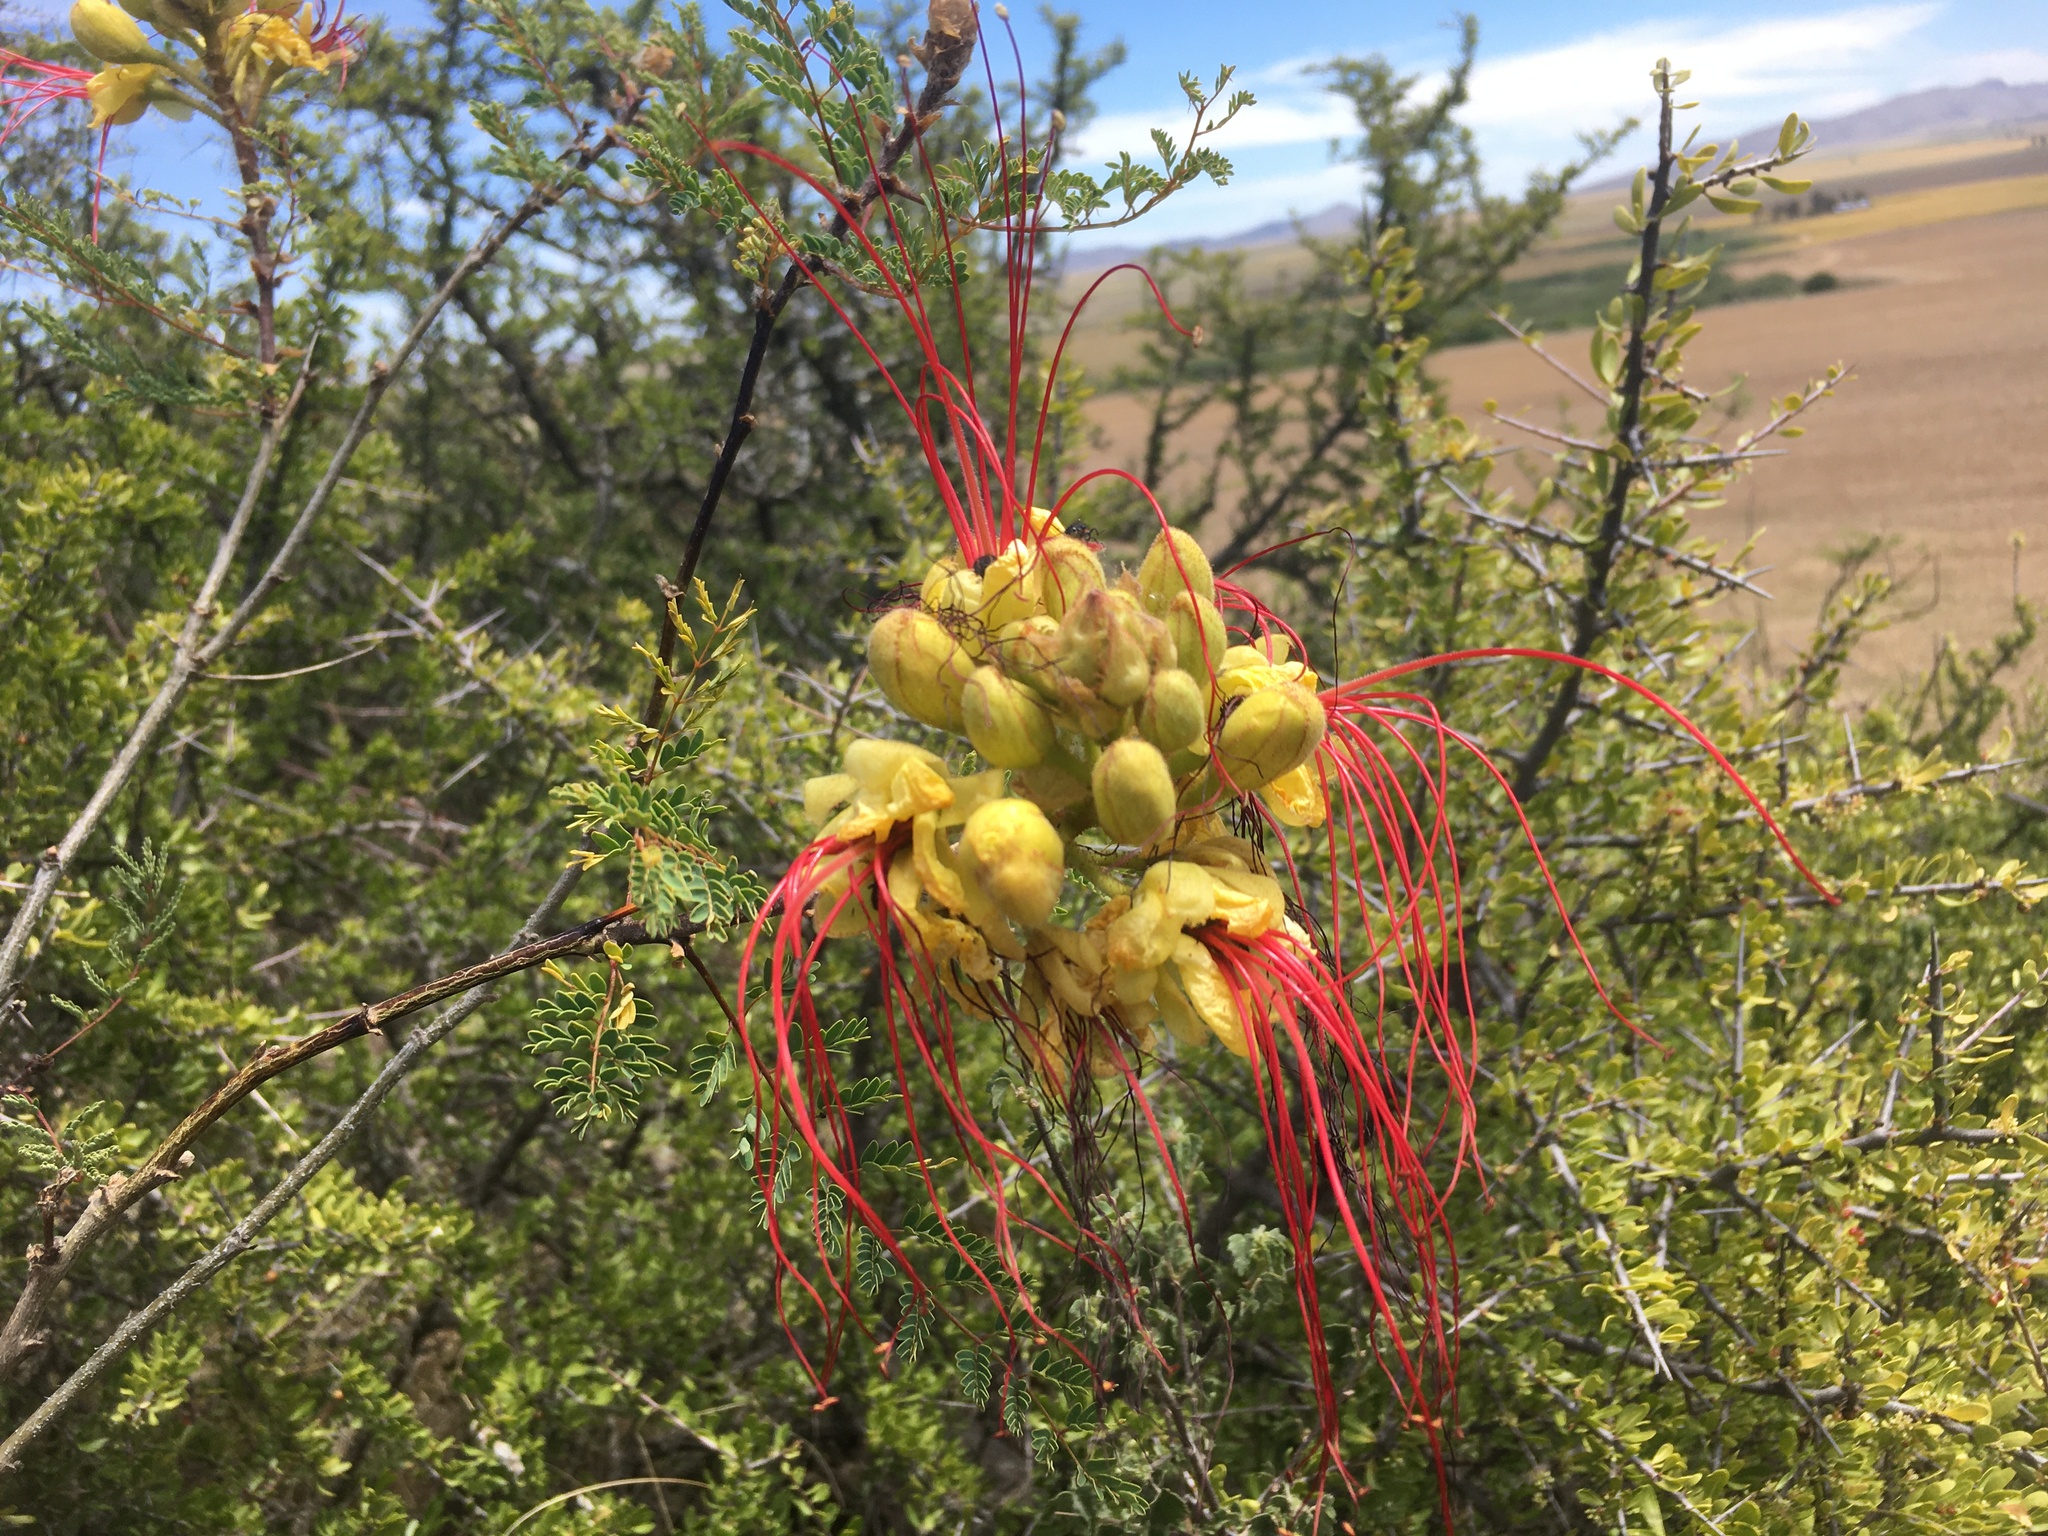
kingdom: Plantae
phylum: Tracheophyta
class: Magnoliopsida
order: Fabales
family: Fabaceae
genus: Erythrostemon
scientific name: Erythrostemon gilliesii
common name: Bird-of-paradise shrub
